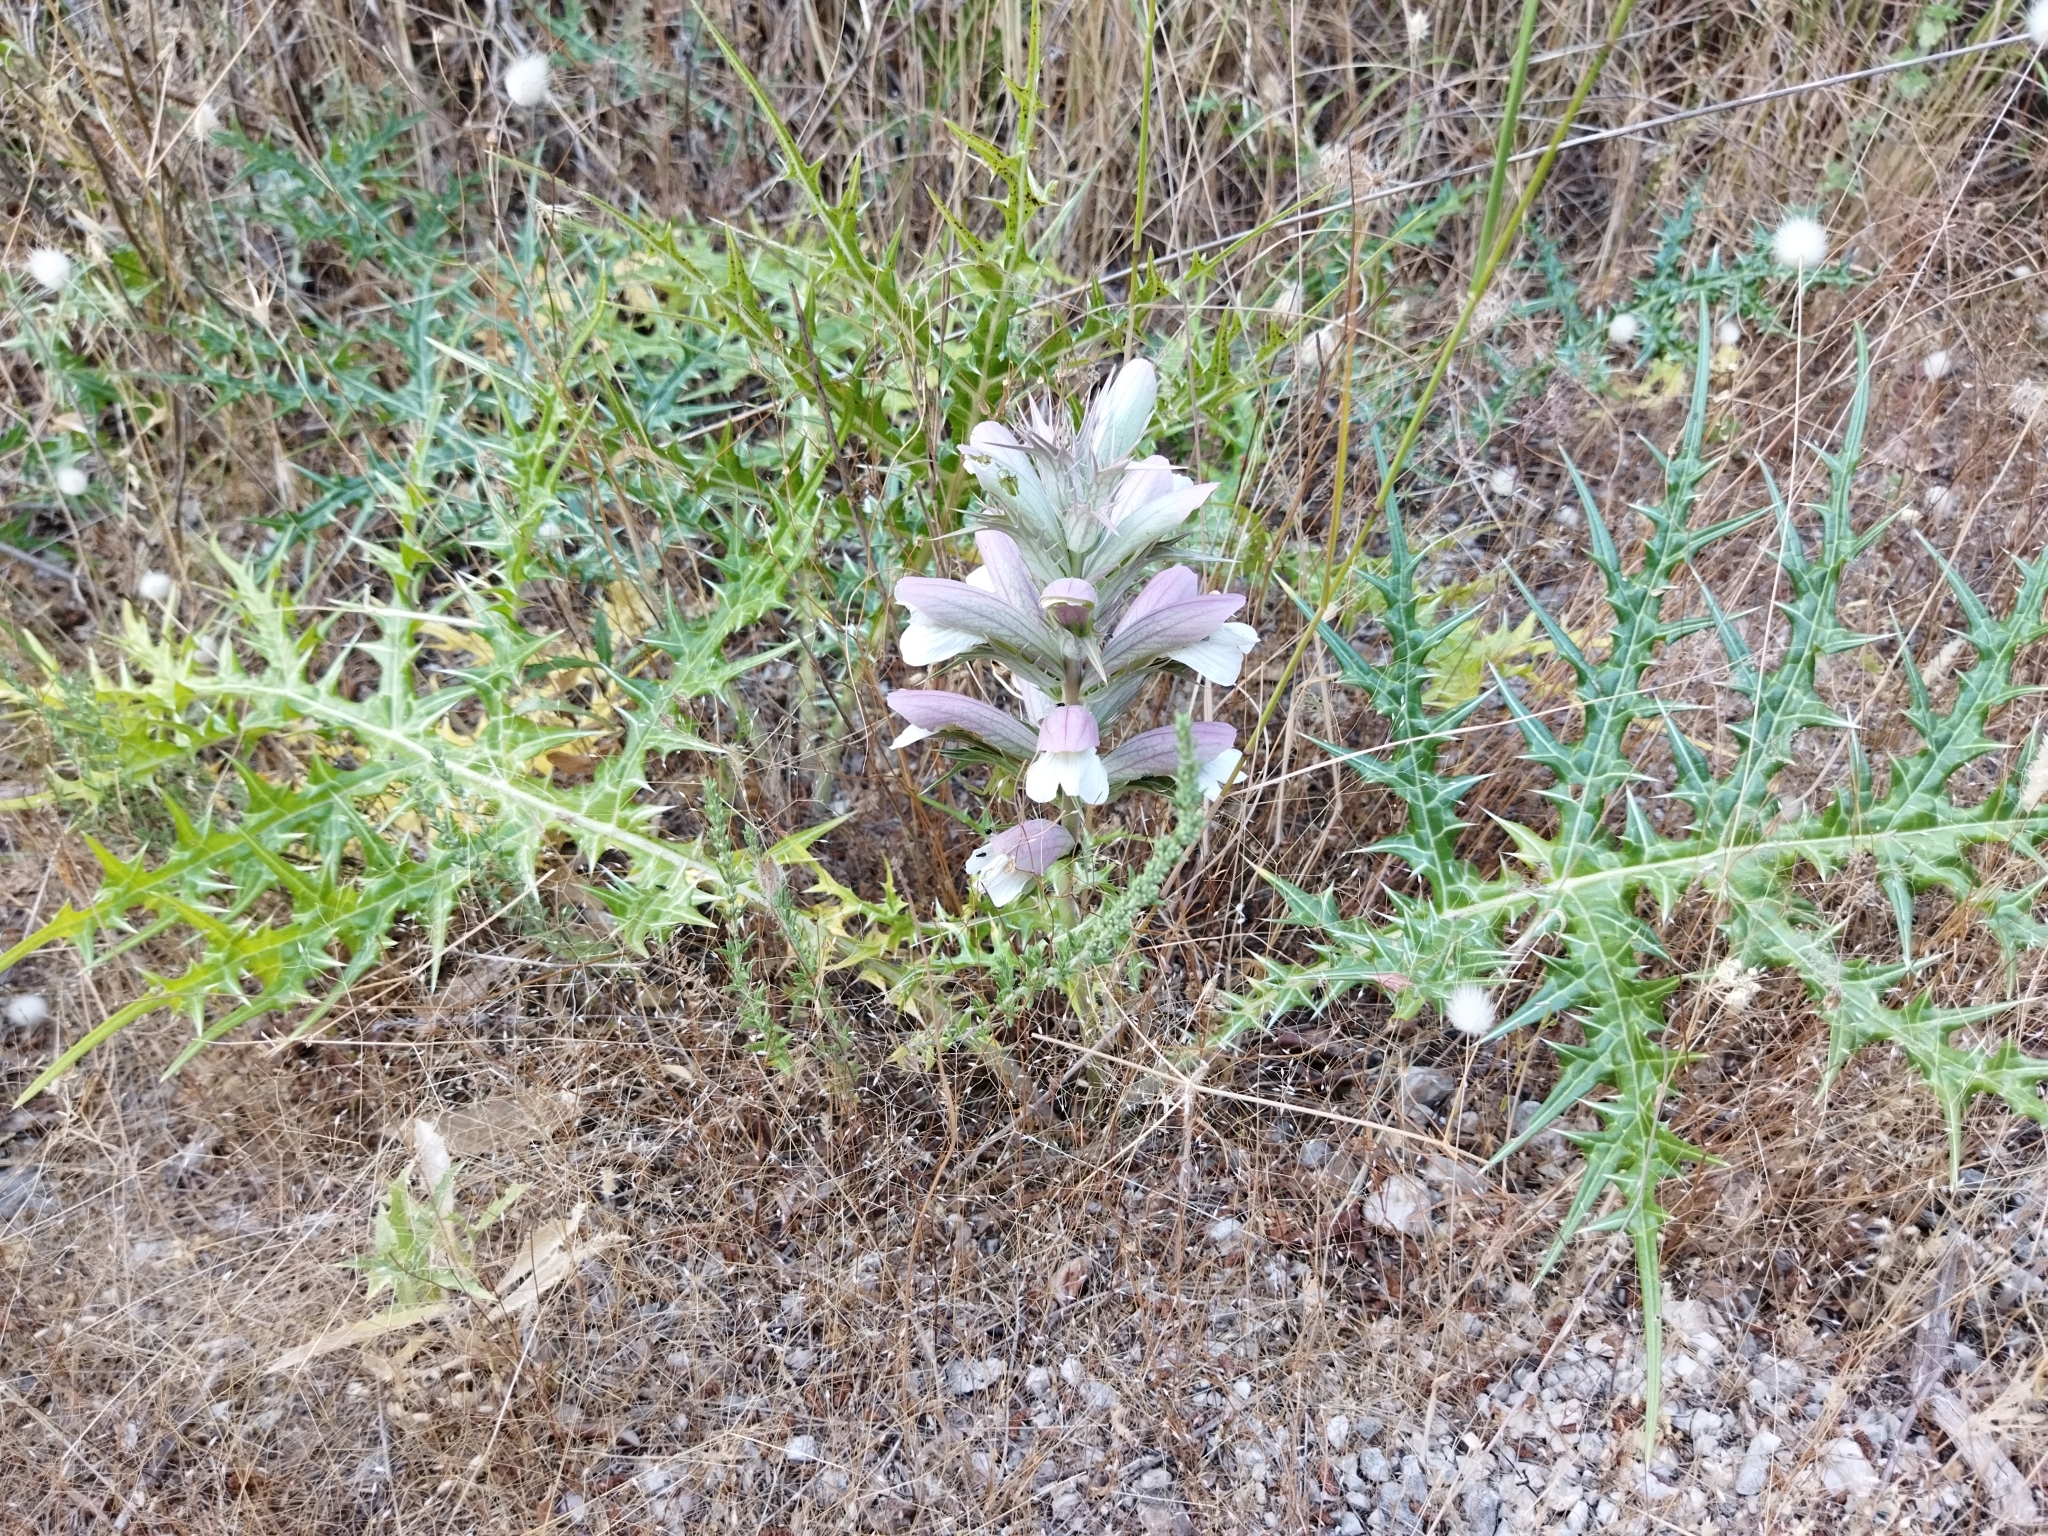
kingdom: Plantae
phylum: Tracheophyta
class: Magnoliopsida
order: Lamiales
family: Acanthaceae
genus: Acanthus
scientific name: Acanthus spinosus
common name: Spiny bear's-breech
